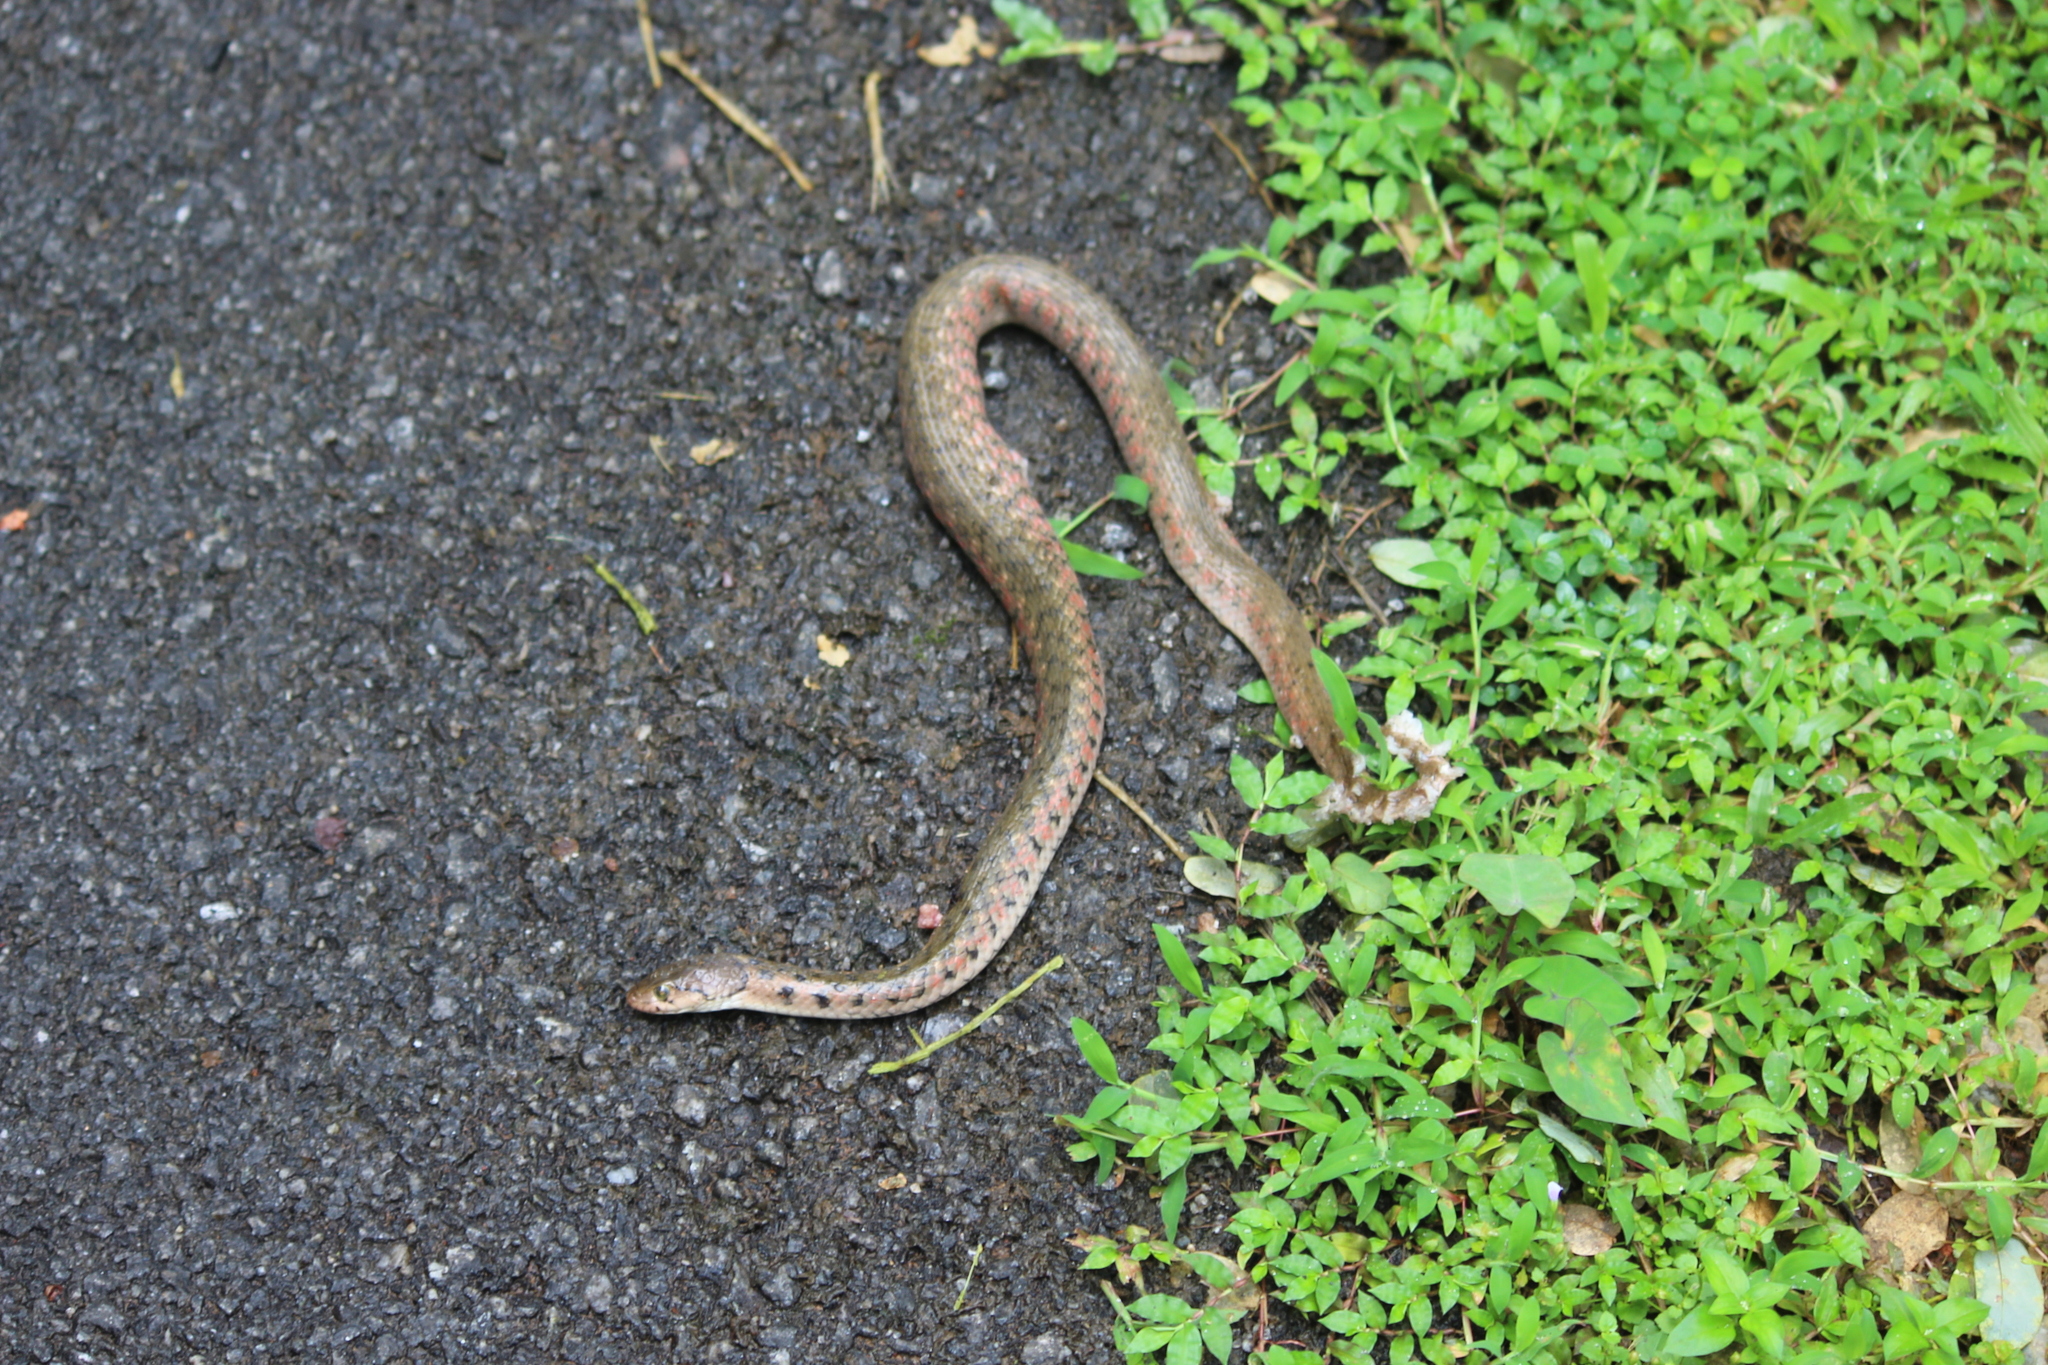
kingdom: Animalia
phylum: Chordata
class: Squamata
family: Colubridae
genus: Fowlea
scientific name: Fowlea piscator
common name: Asiatic water snake
